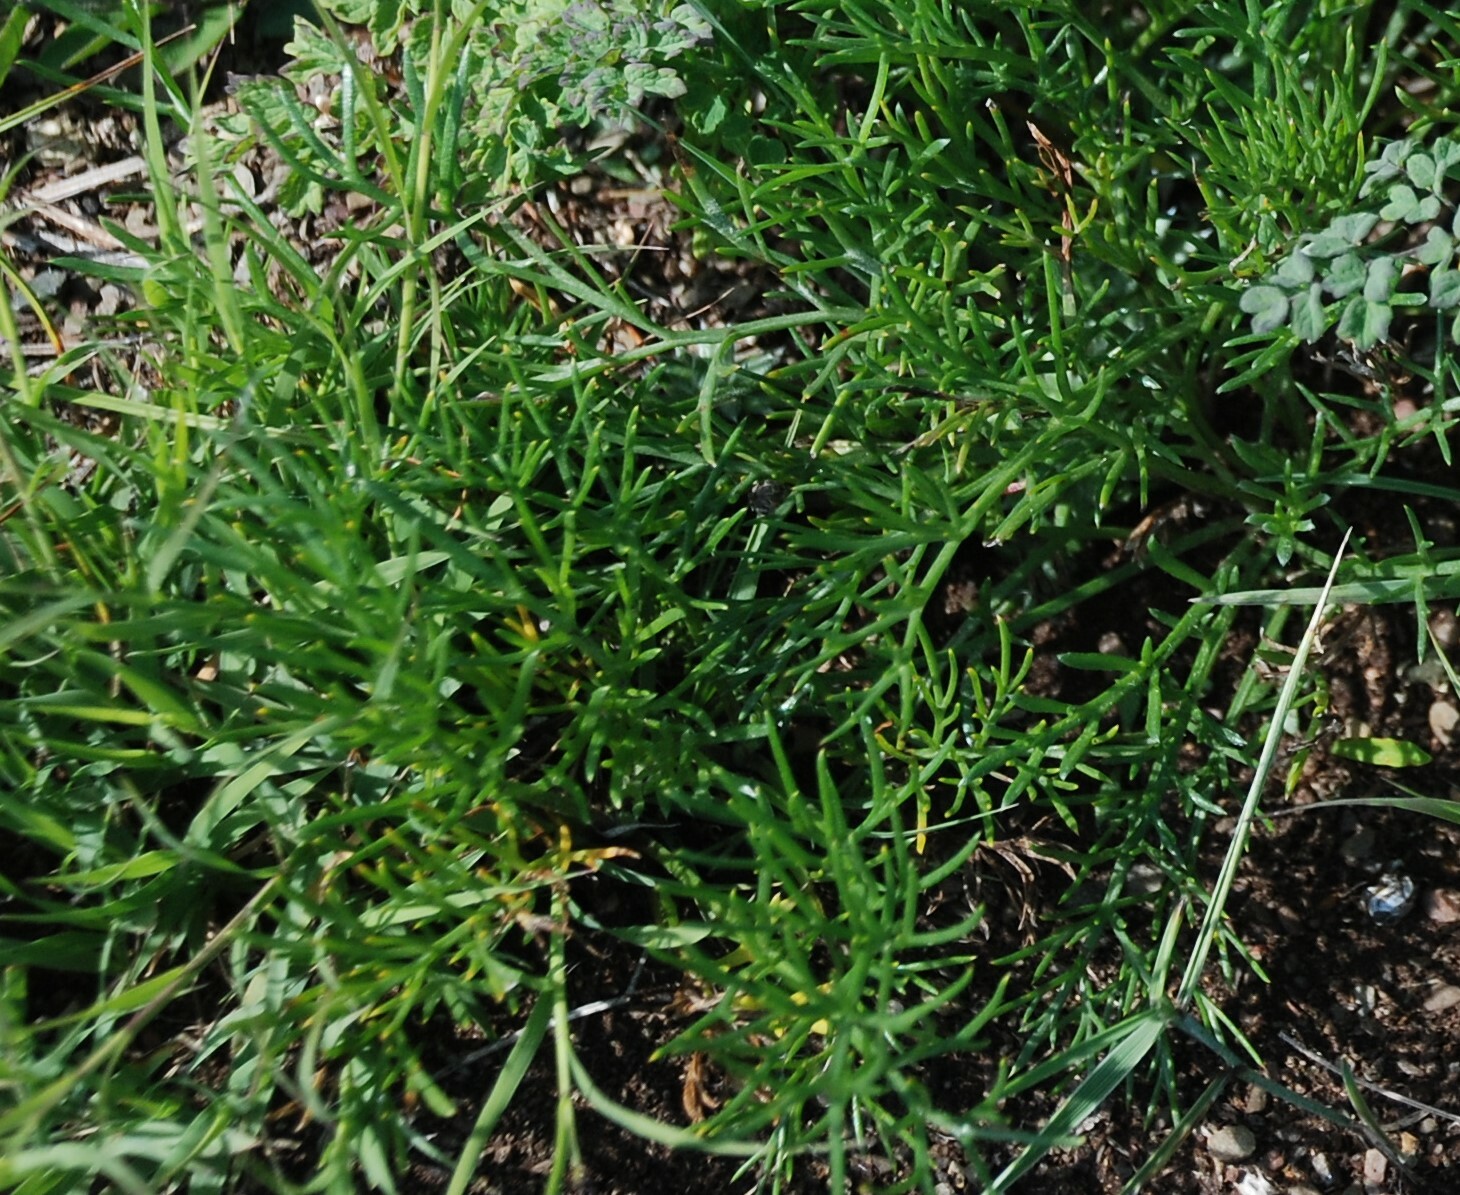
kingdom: Plantae
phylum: Tracheophyta
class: Magnoliopsida
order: Asterales
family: Asteraceae
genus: Artemisia
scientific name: Artemisia pubescens
